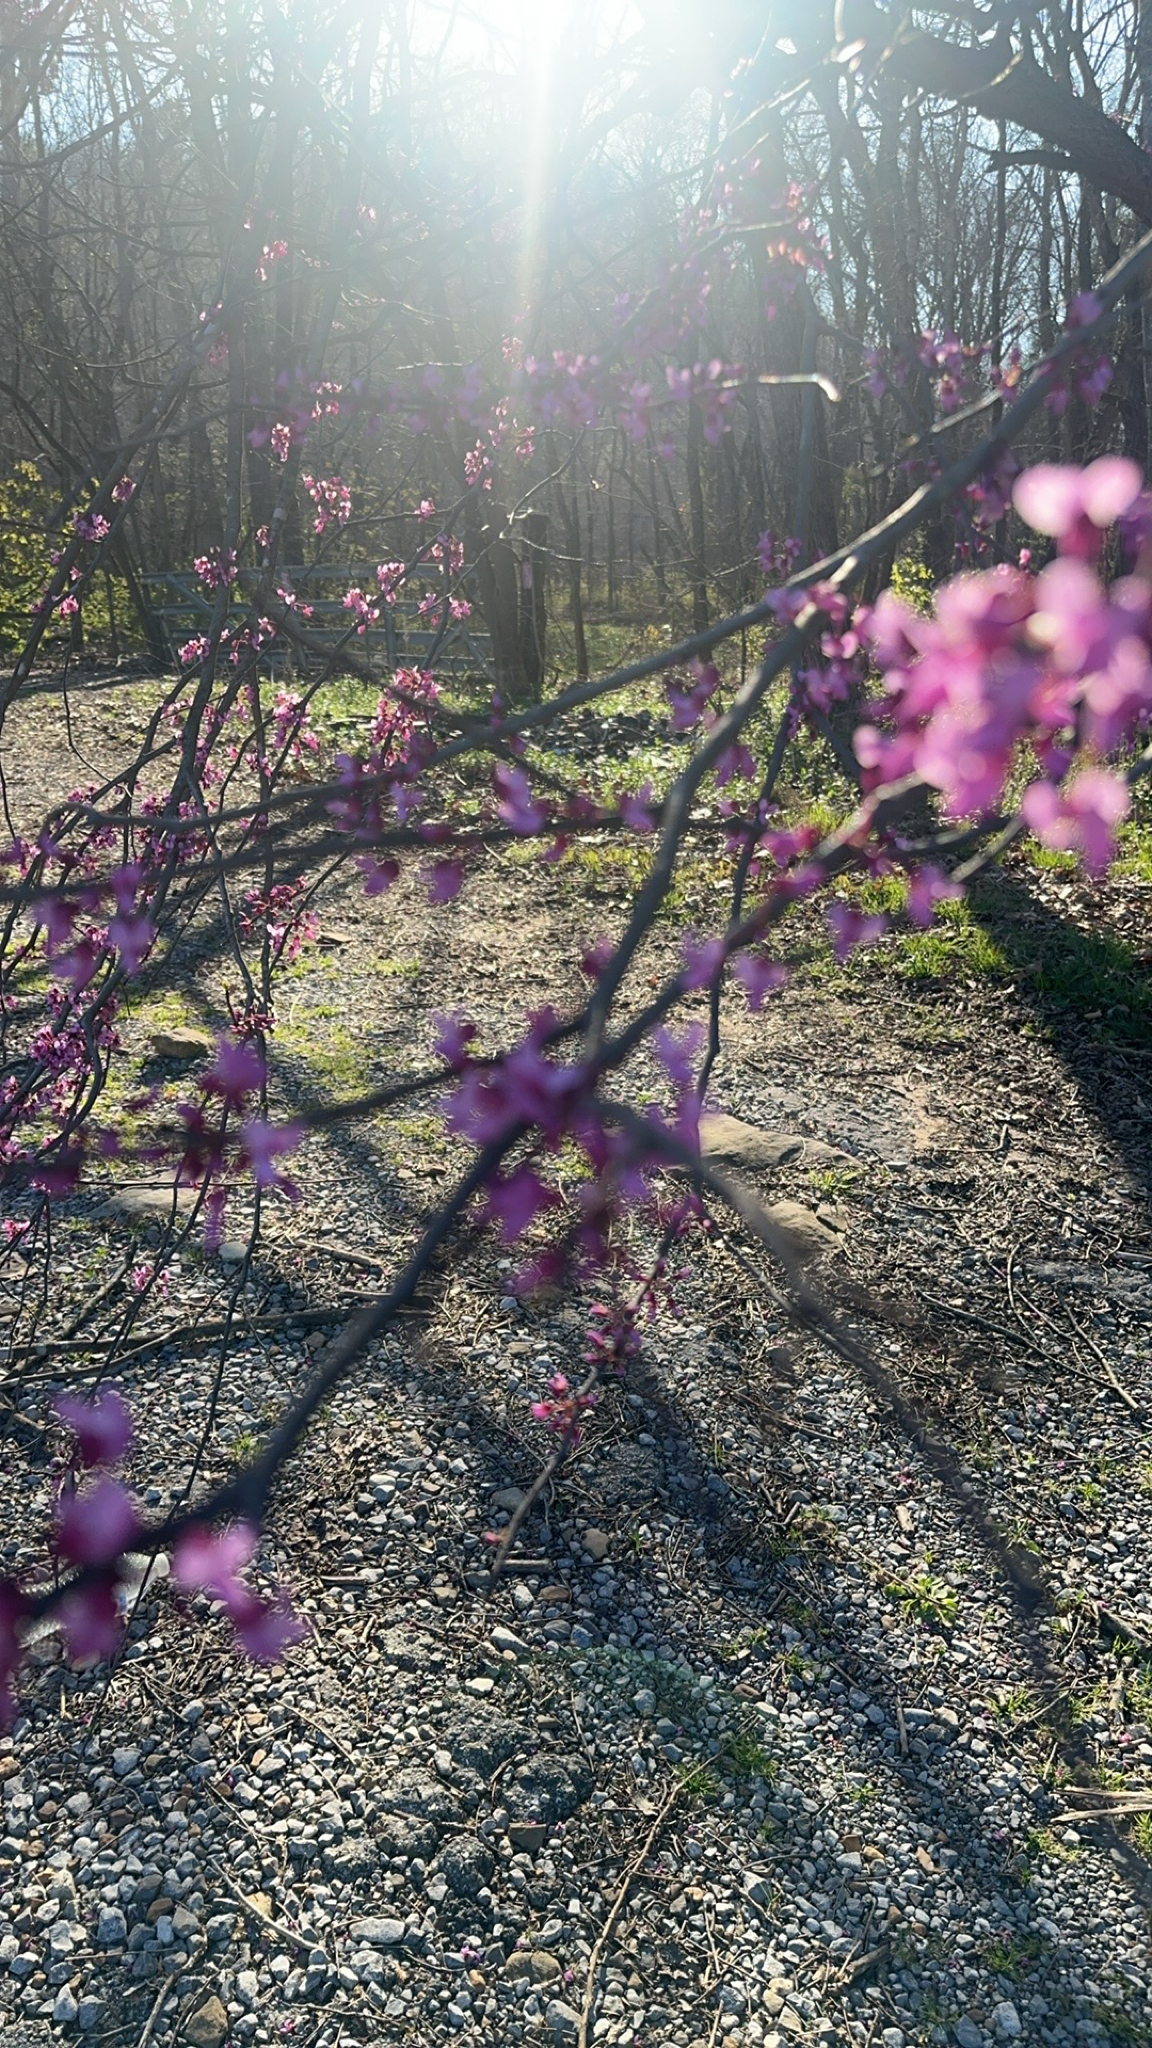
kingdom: Plantae
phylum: Tracheophyta
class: Magnoliopsida
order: Fabales
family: Fabaceae
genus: Cercis
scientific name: Cercis canadensis
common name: Eastern redbud
